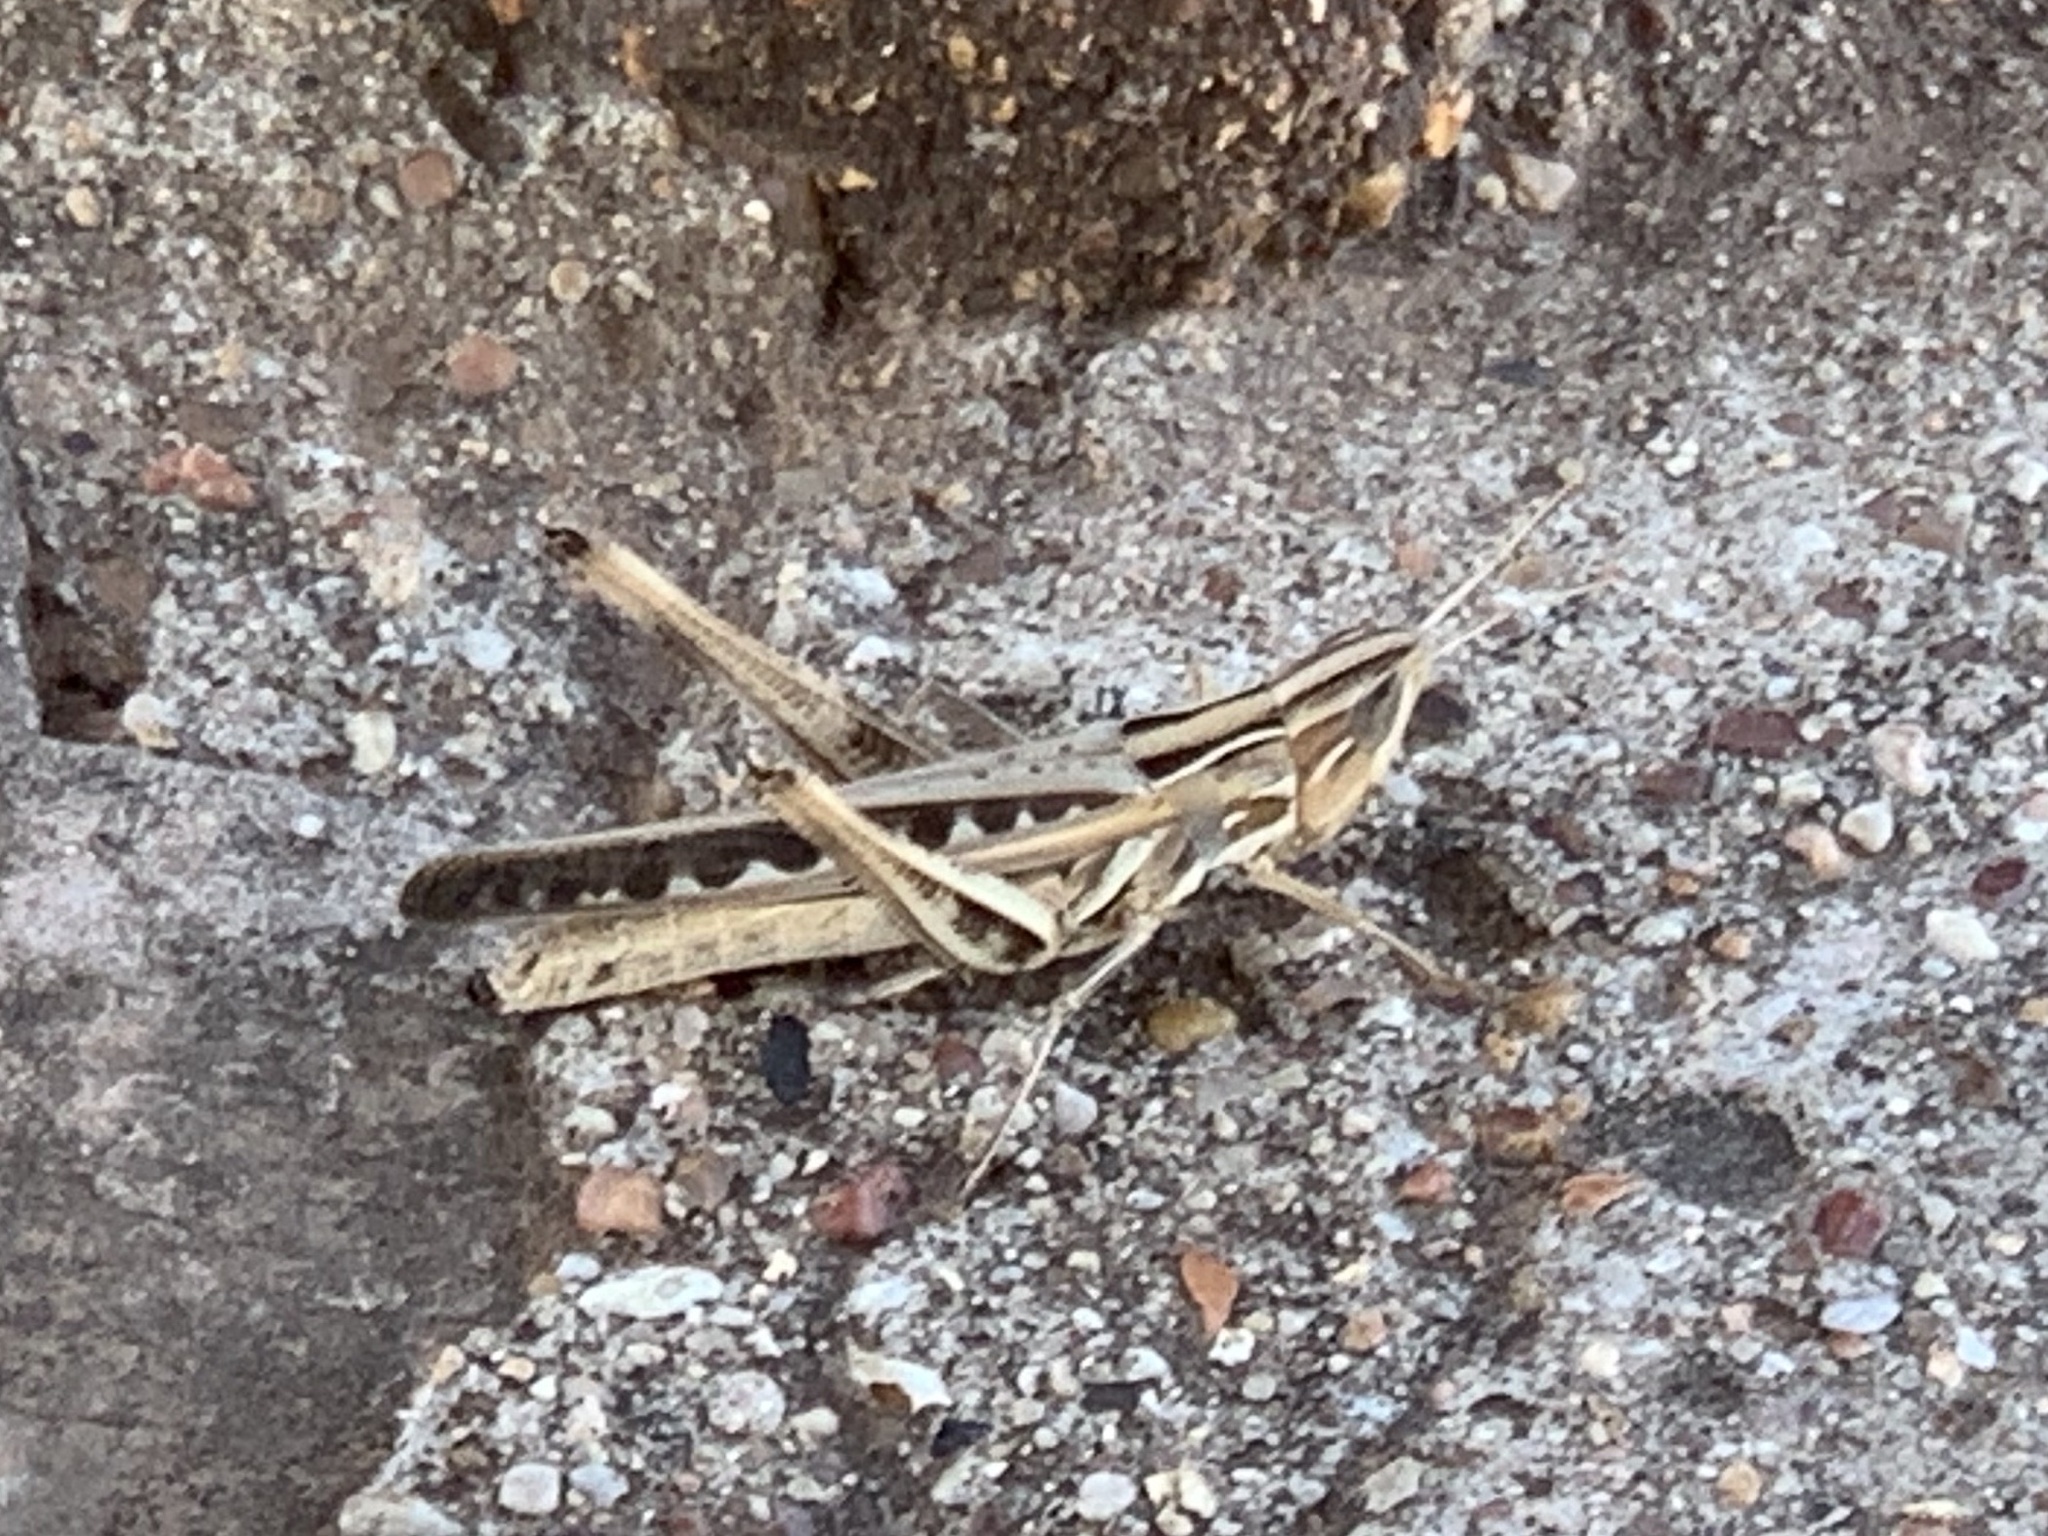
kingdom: Animalia
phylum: Arthropoda
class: Insecta
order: Orthoptera
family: Acrididae
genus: Syrbula
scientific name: Syrbula admirabilis
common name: Handsome grasshopper
